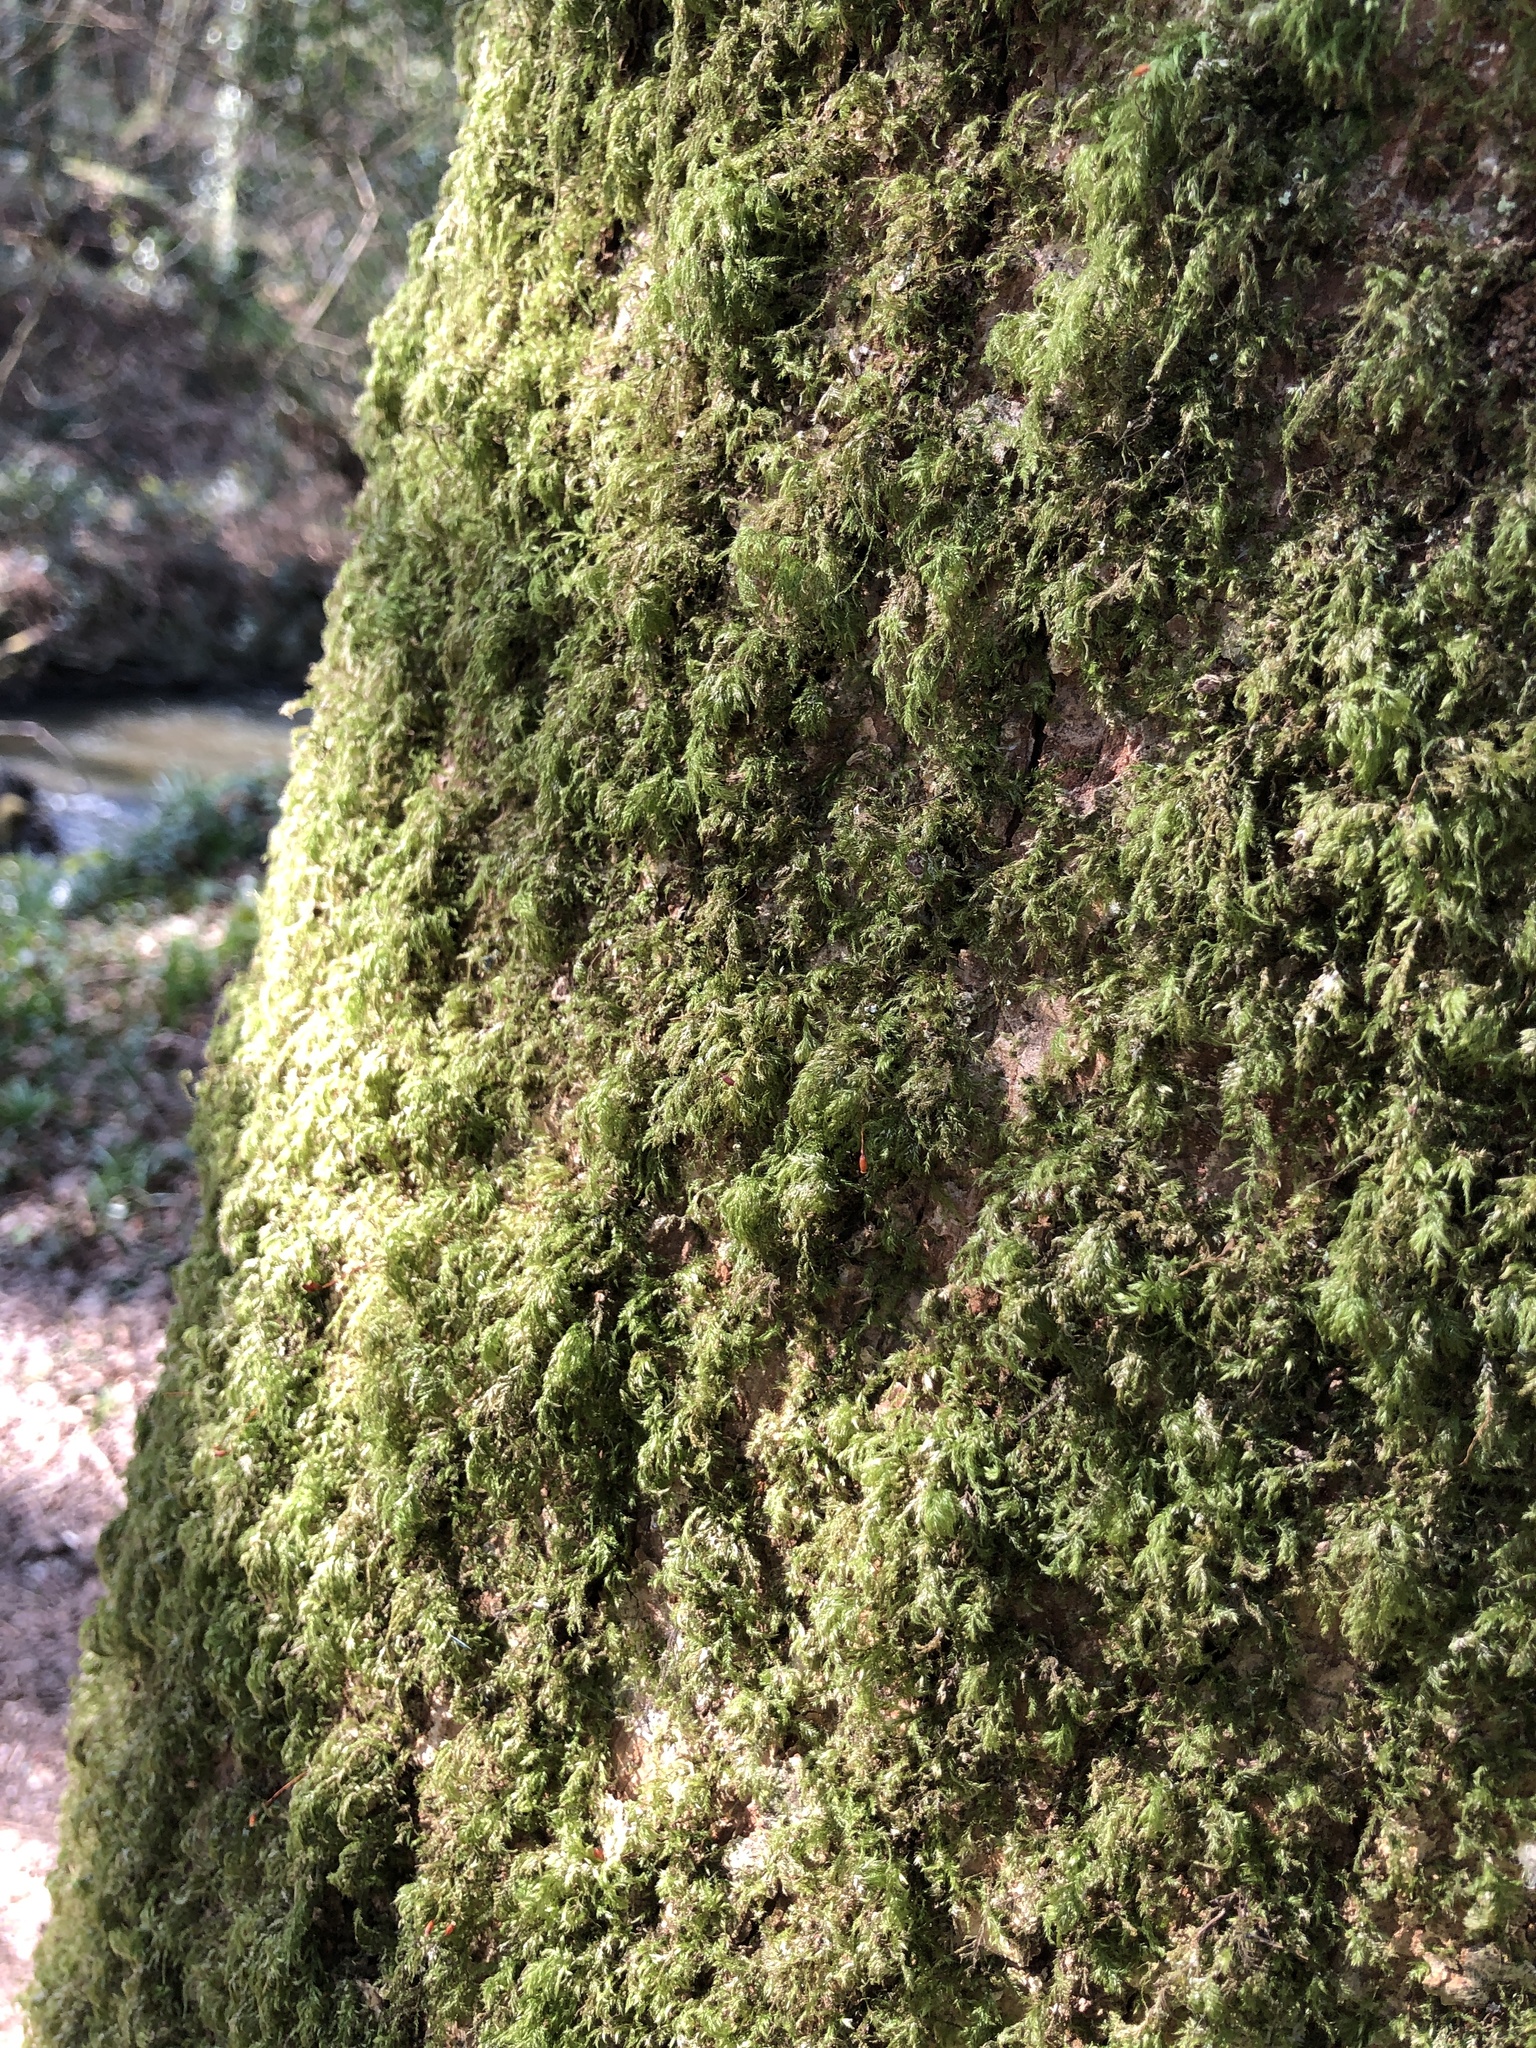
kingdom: Plantae
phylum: Bryophyta
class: Bryopsida
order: Hypnales
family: Lembophyllaceae
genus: Pseudisothecium
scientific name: Pseudisothecium myosuroides
